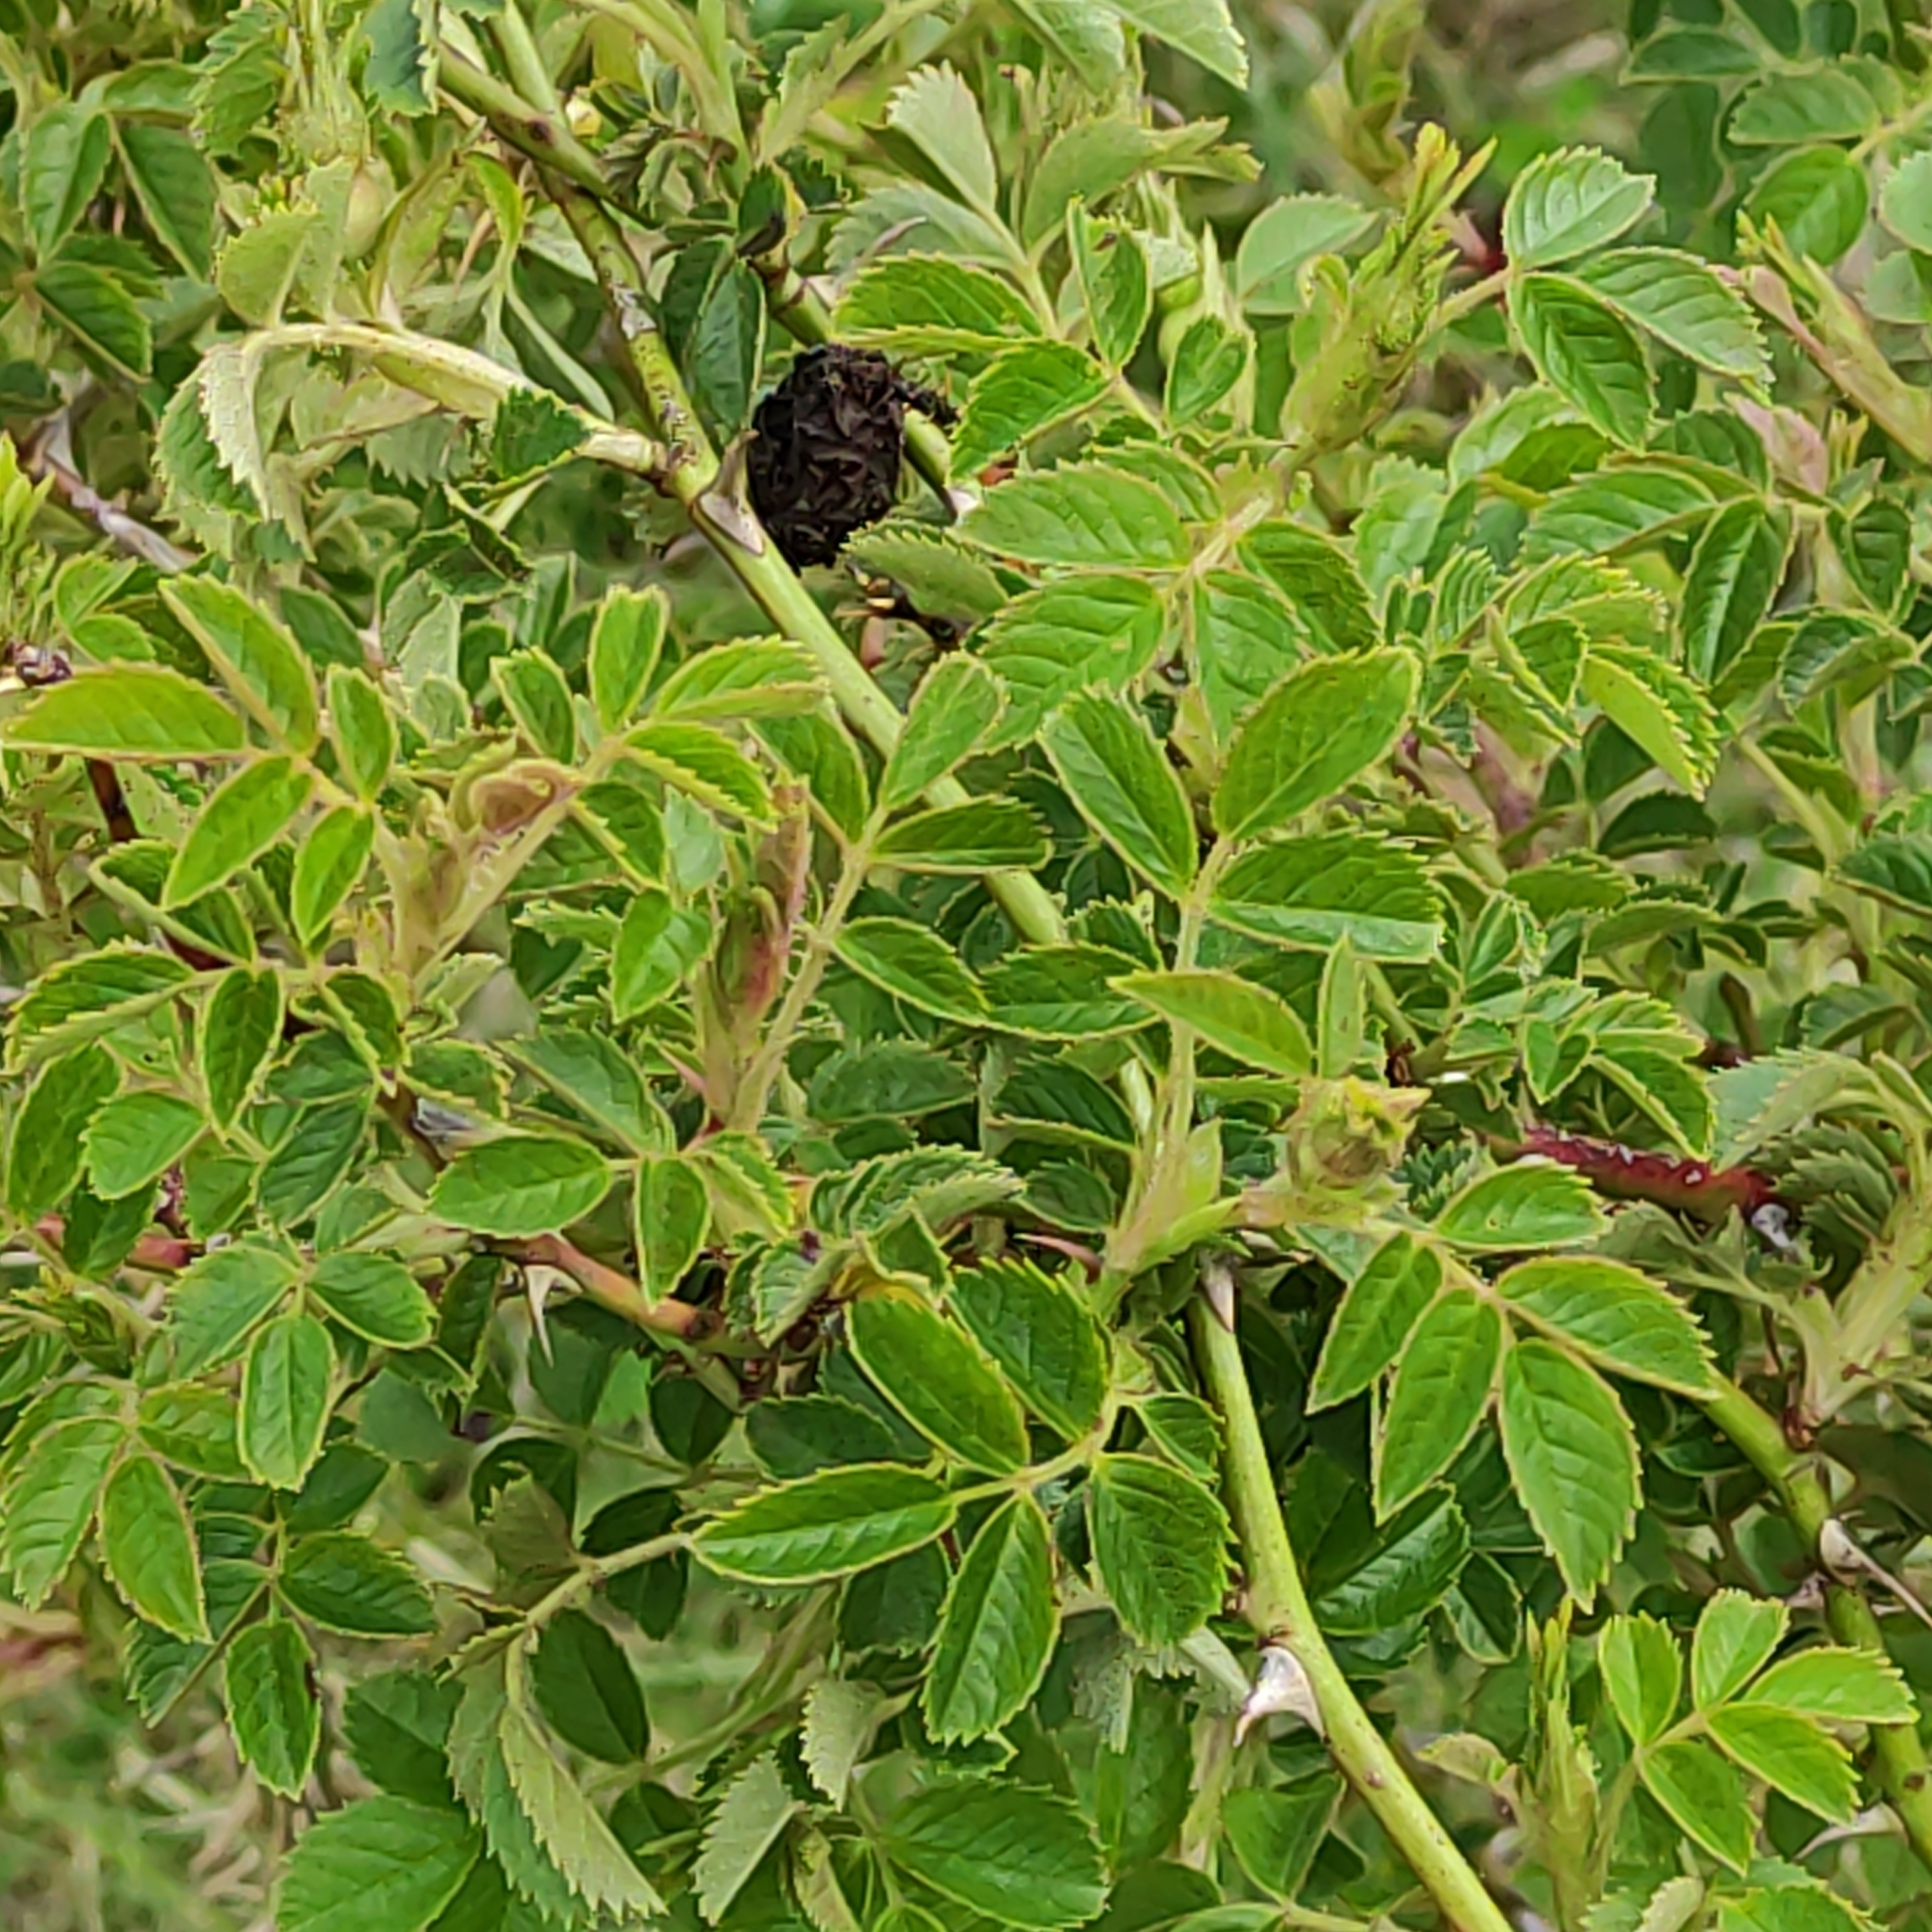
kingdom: Plantae
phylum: Tracheophyta
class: Magnoliopsida
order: Rosales
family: Rosaceae
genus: Rosa
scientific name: Rosa rubiginosa
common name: Sweet-briar
